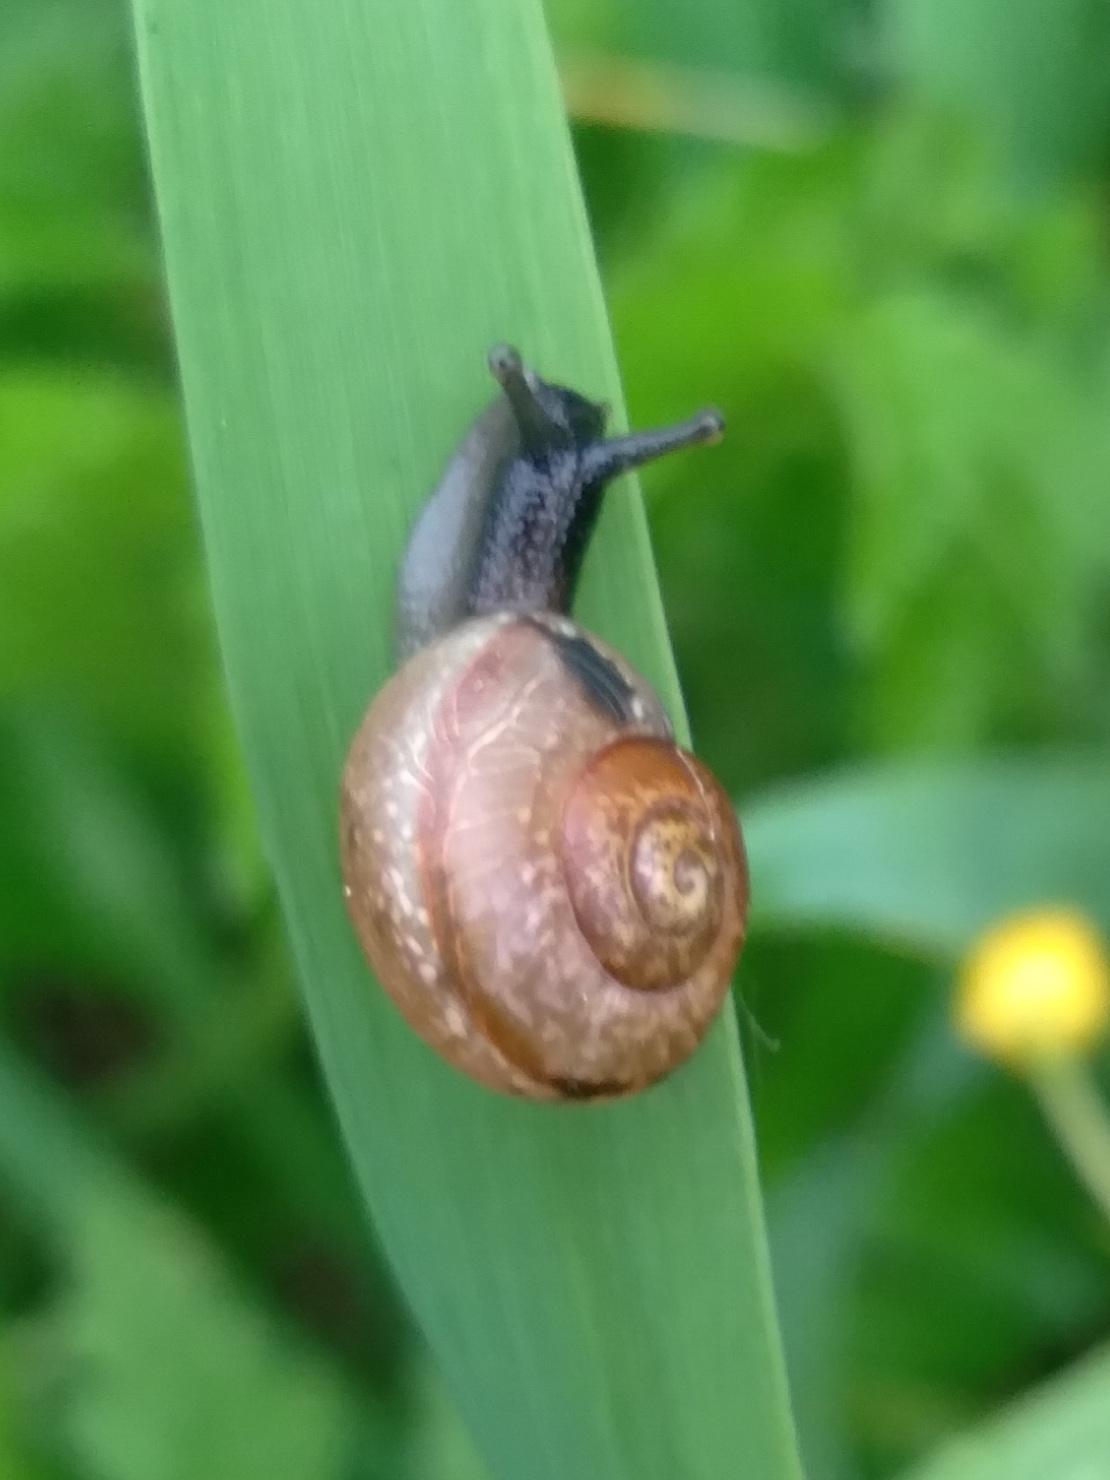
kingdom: Animalia
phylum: Mollusca
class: Gastropoda
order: Stylommatophora
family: Helicidae
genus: Arianta
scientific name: Arianta arbustorum
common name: Copse snail
